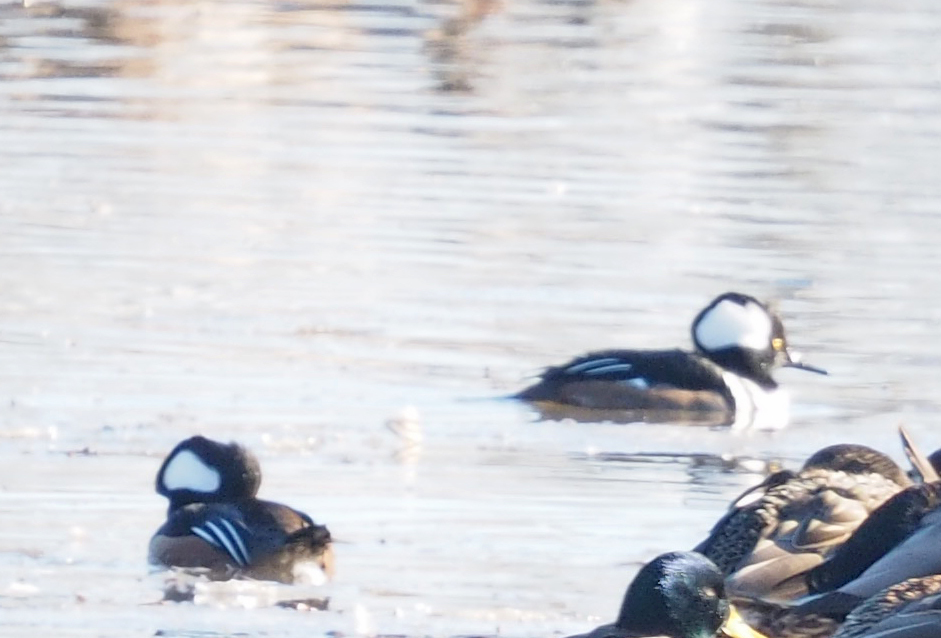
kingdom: Animalia
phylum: Chordata
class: Aves
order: Anseriformes
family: Anatidae
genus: Lophodytes
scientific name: Lophodytes cucullatus
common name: Hooded merganser
